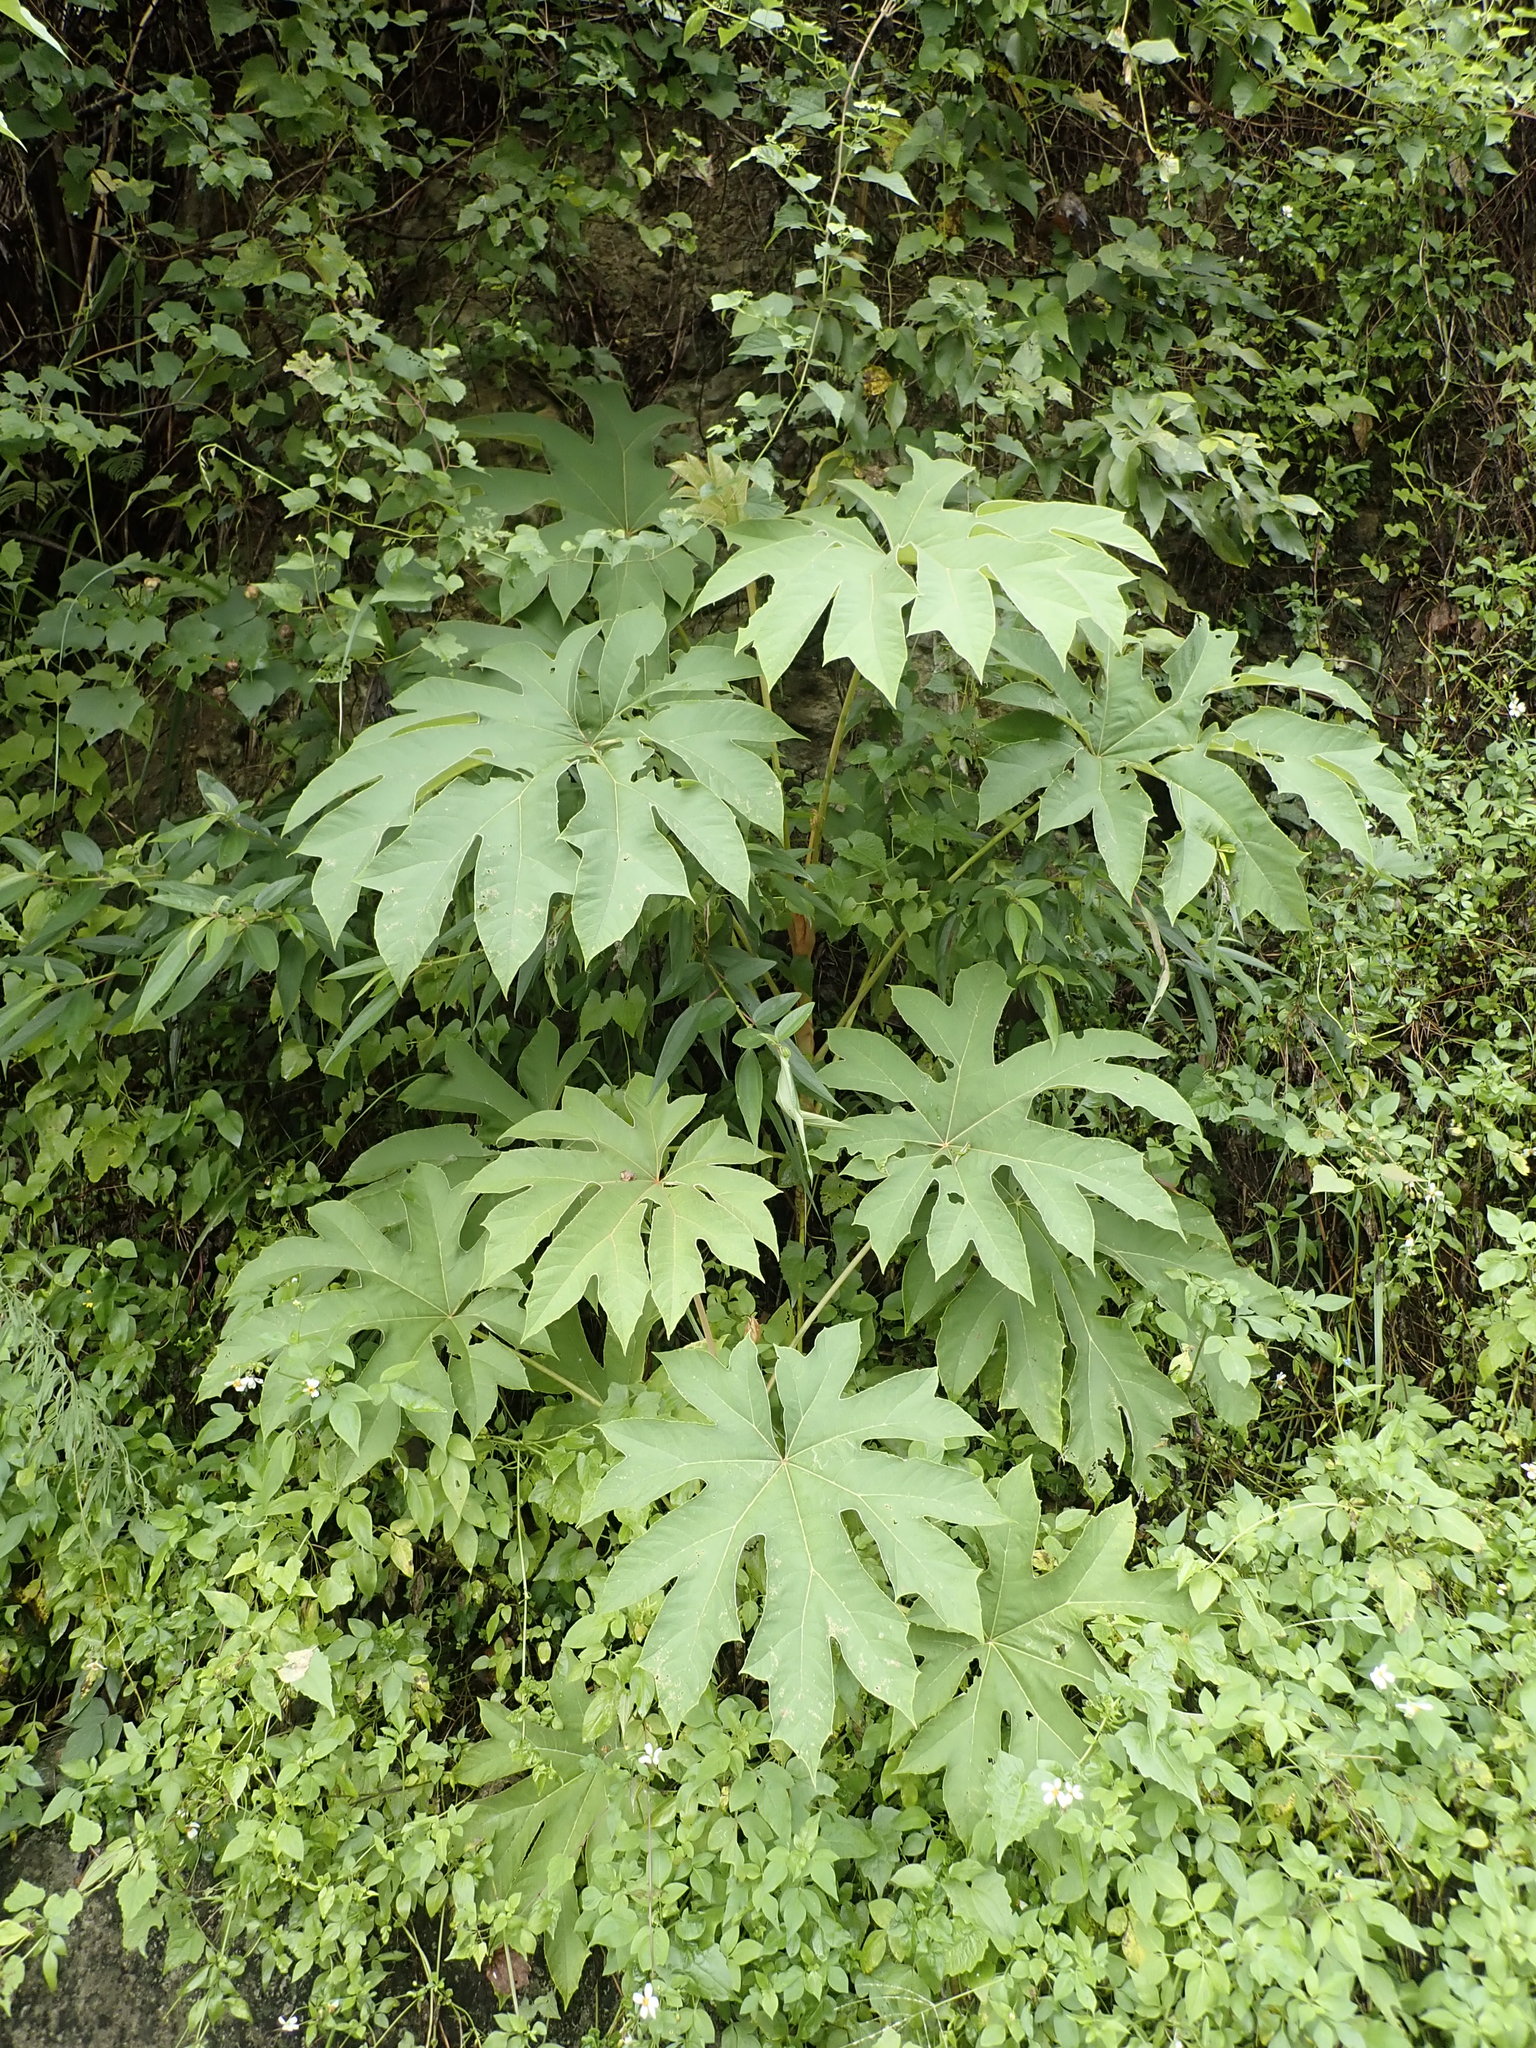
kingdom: Plantae
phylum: Tracheophyta
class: Magnoliopsida
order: Apiales
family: Araliaceae
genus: Tetrapanax
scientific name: Tetrapanax papyrifer
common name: Rice-paper plant
